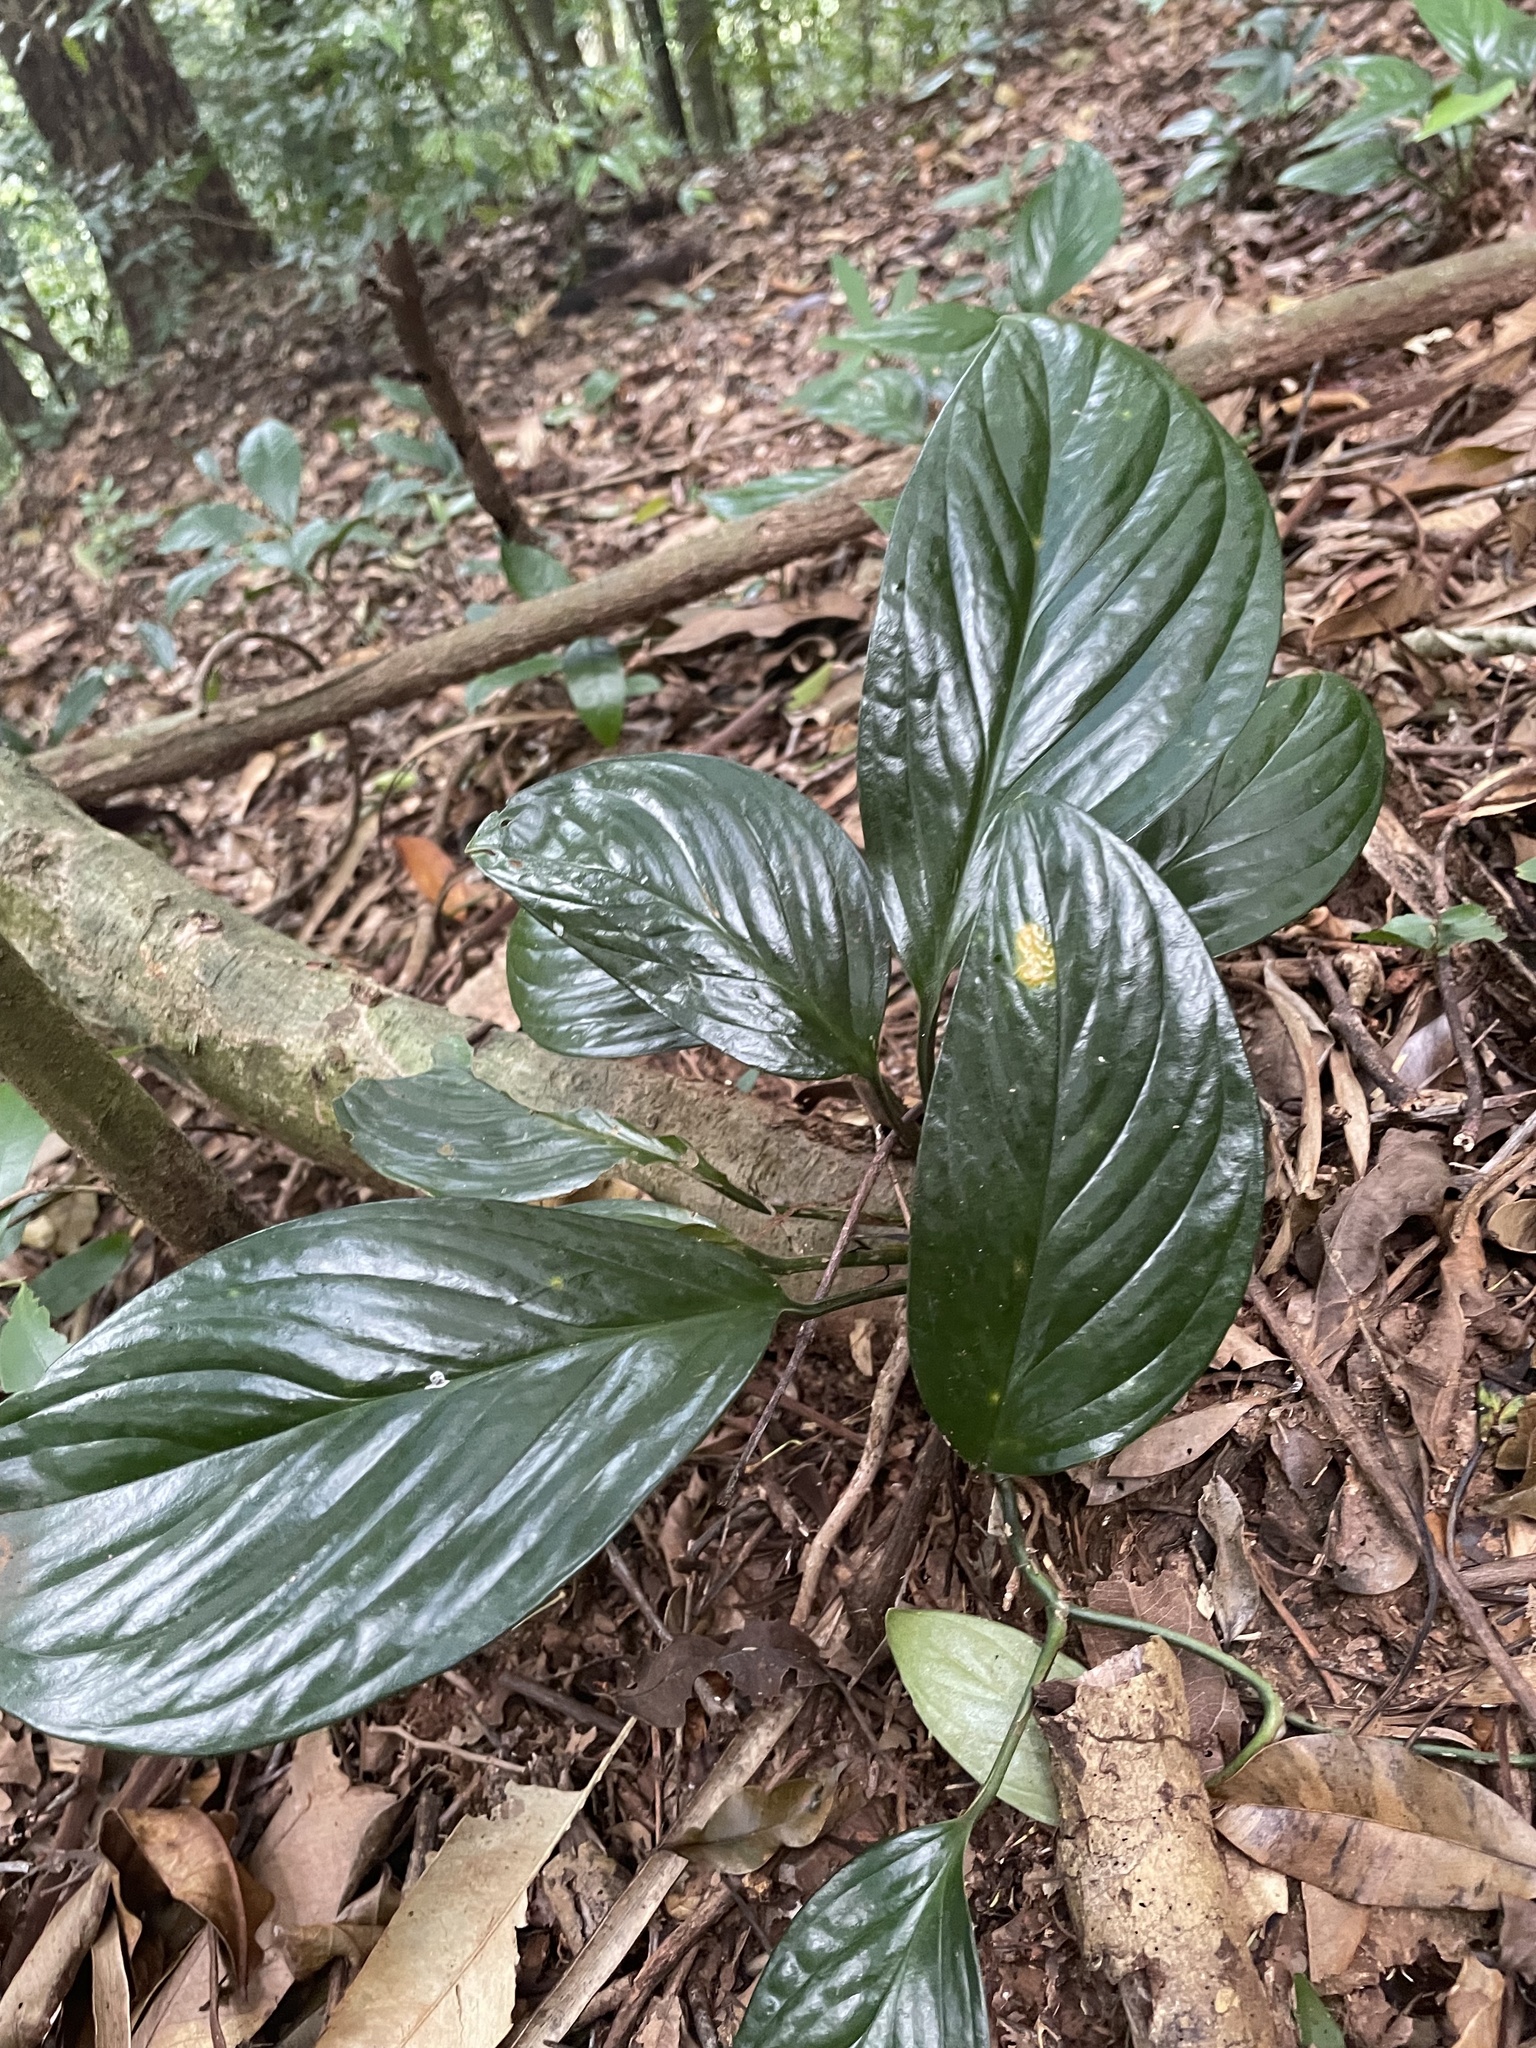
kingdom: Plantae
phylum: Tracheophyta
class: Liliopsida
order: Alismatales
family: Araceae
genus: Monstera
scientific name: Monstera pinnatipartita
